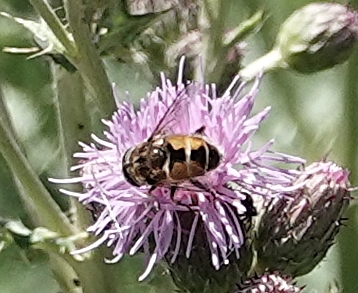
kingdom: Animalia
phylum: Arthropoda
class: Insecta
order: Diptera
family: Syrphidae
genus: Eristalis
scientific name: Eristalis arbustorum
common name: Hover fly
